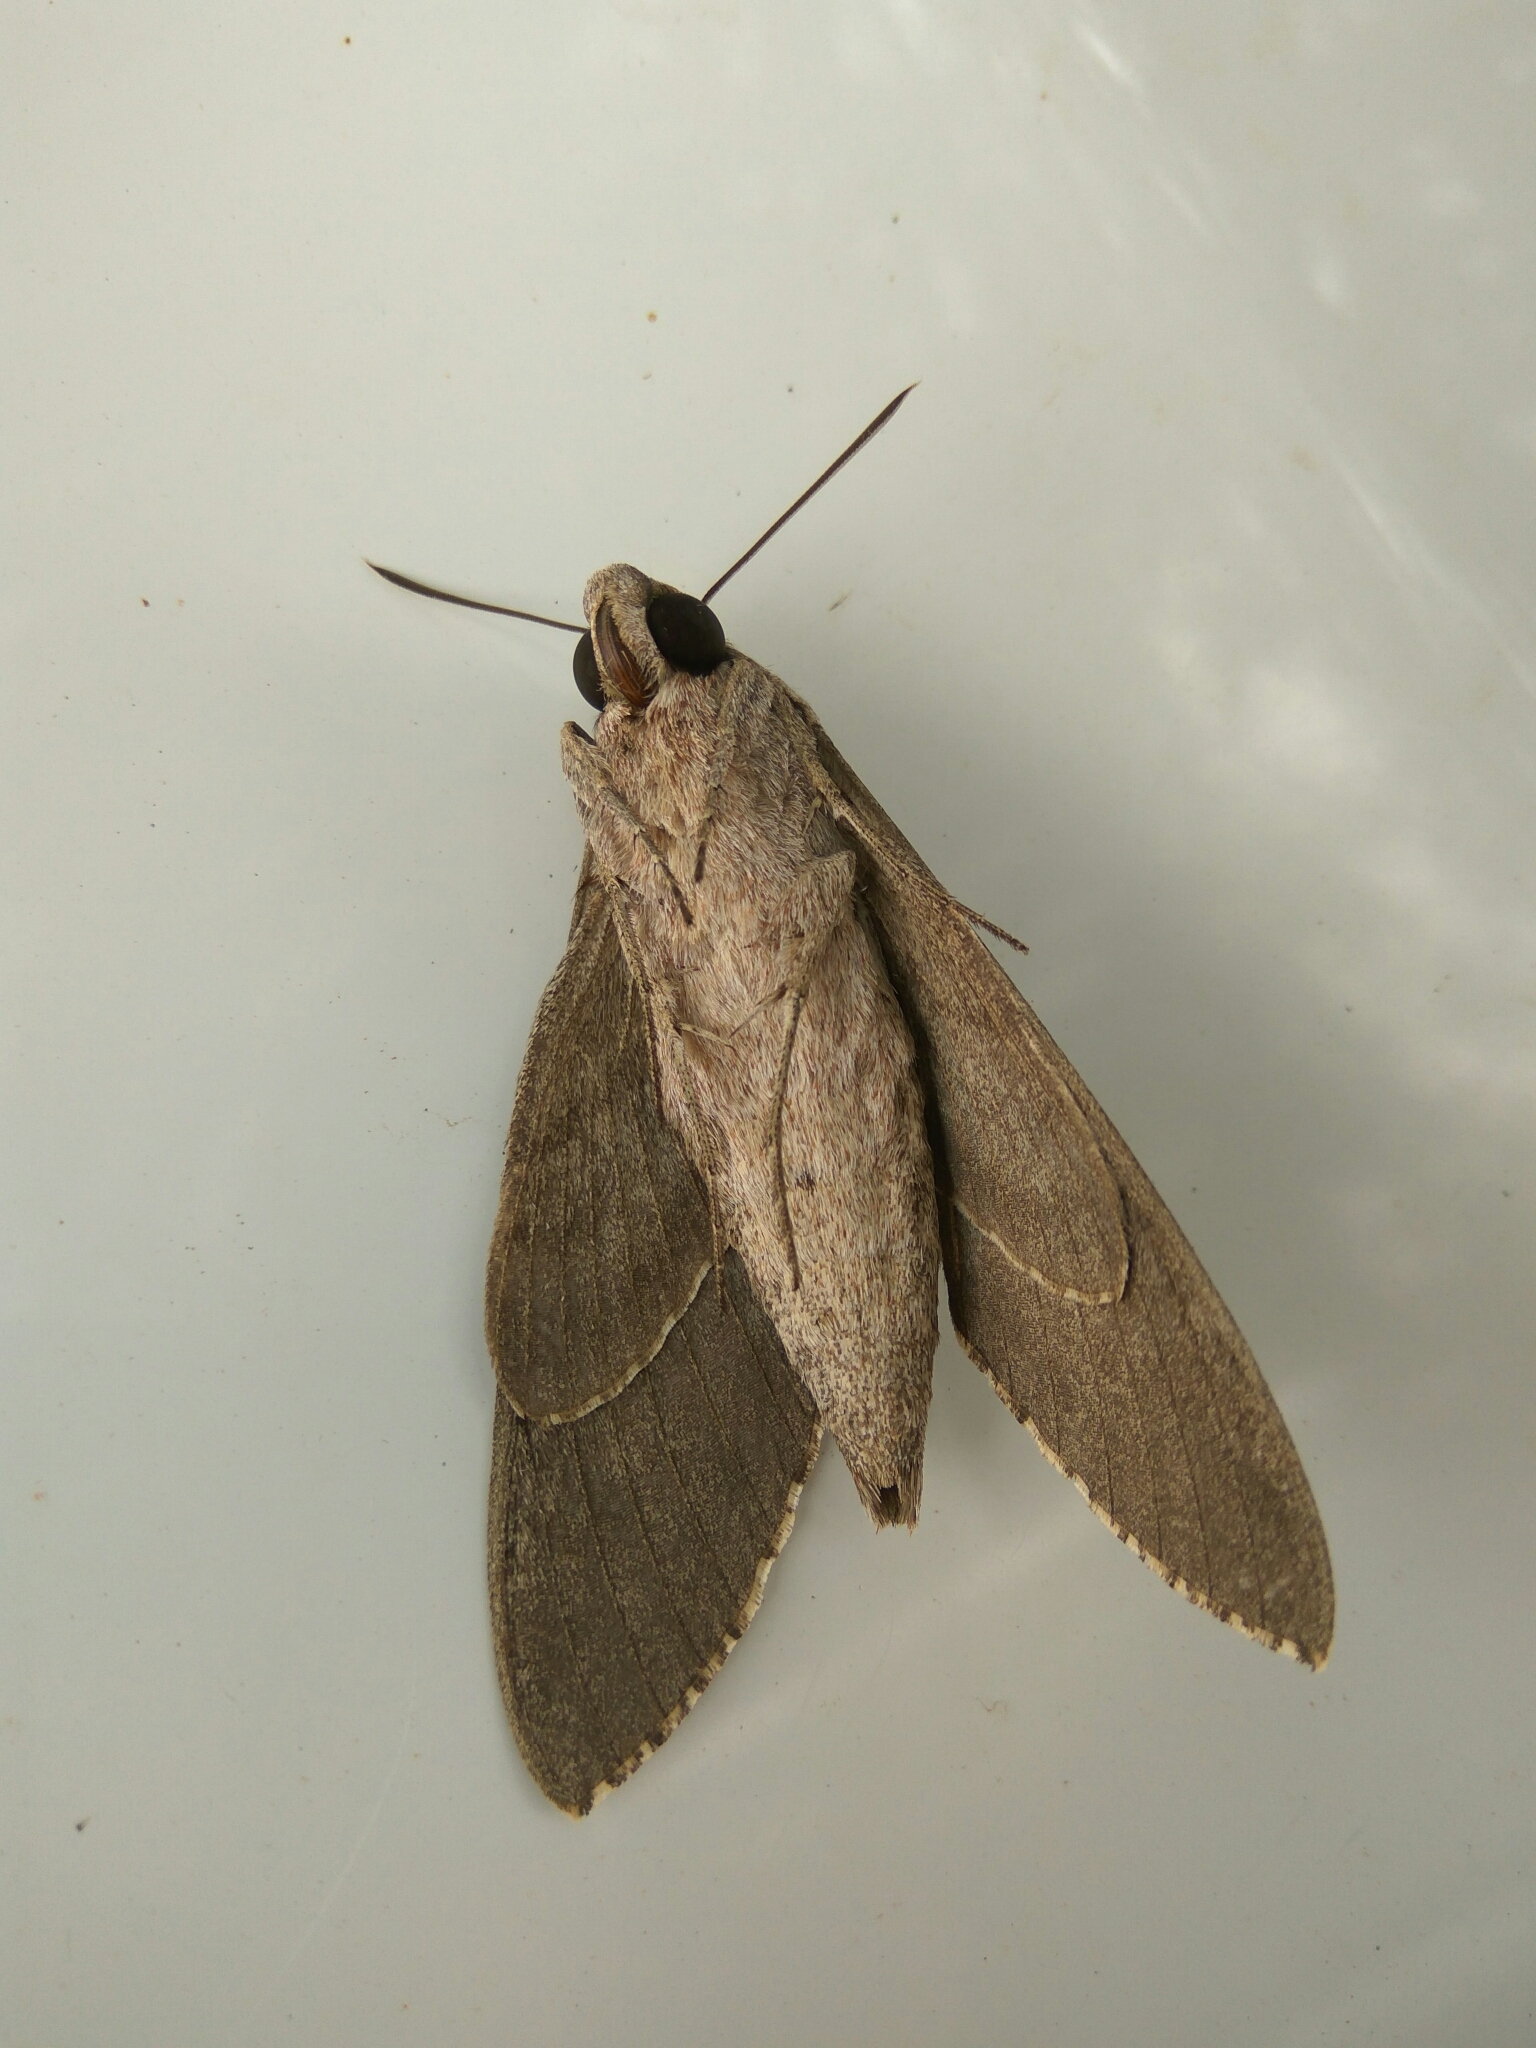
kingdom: Animalia
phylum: Arthropoda
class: Insecta
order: Lepidoptera
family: Sphingidae
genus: Agrius
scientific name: Agrius convolvuli
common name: Convolvulus hawkmoth
